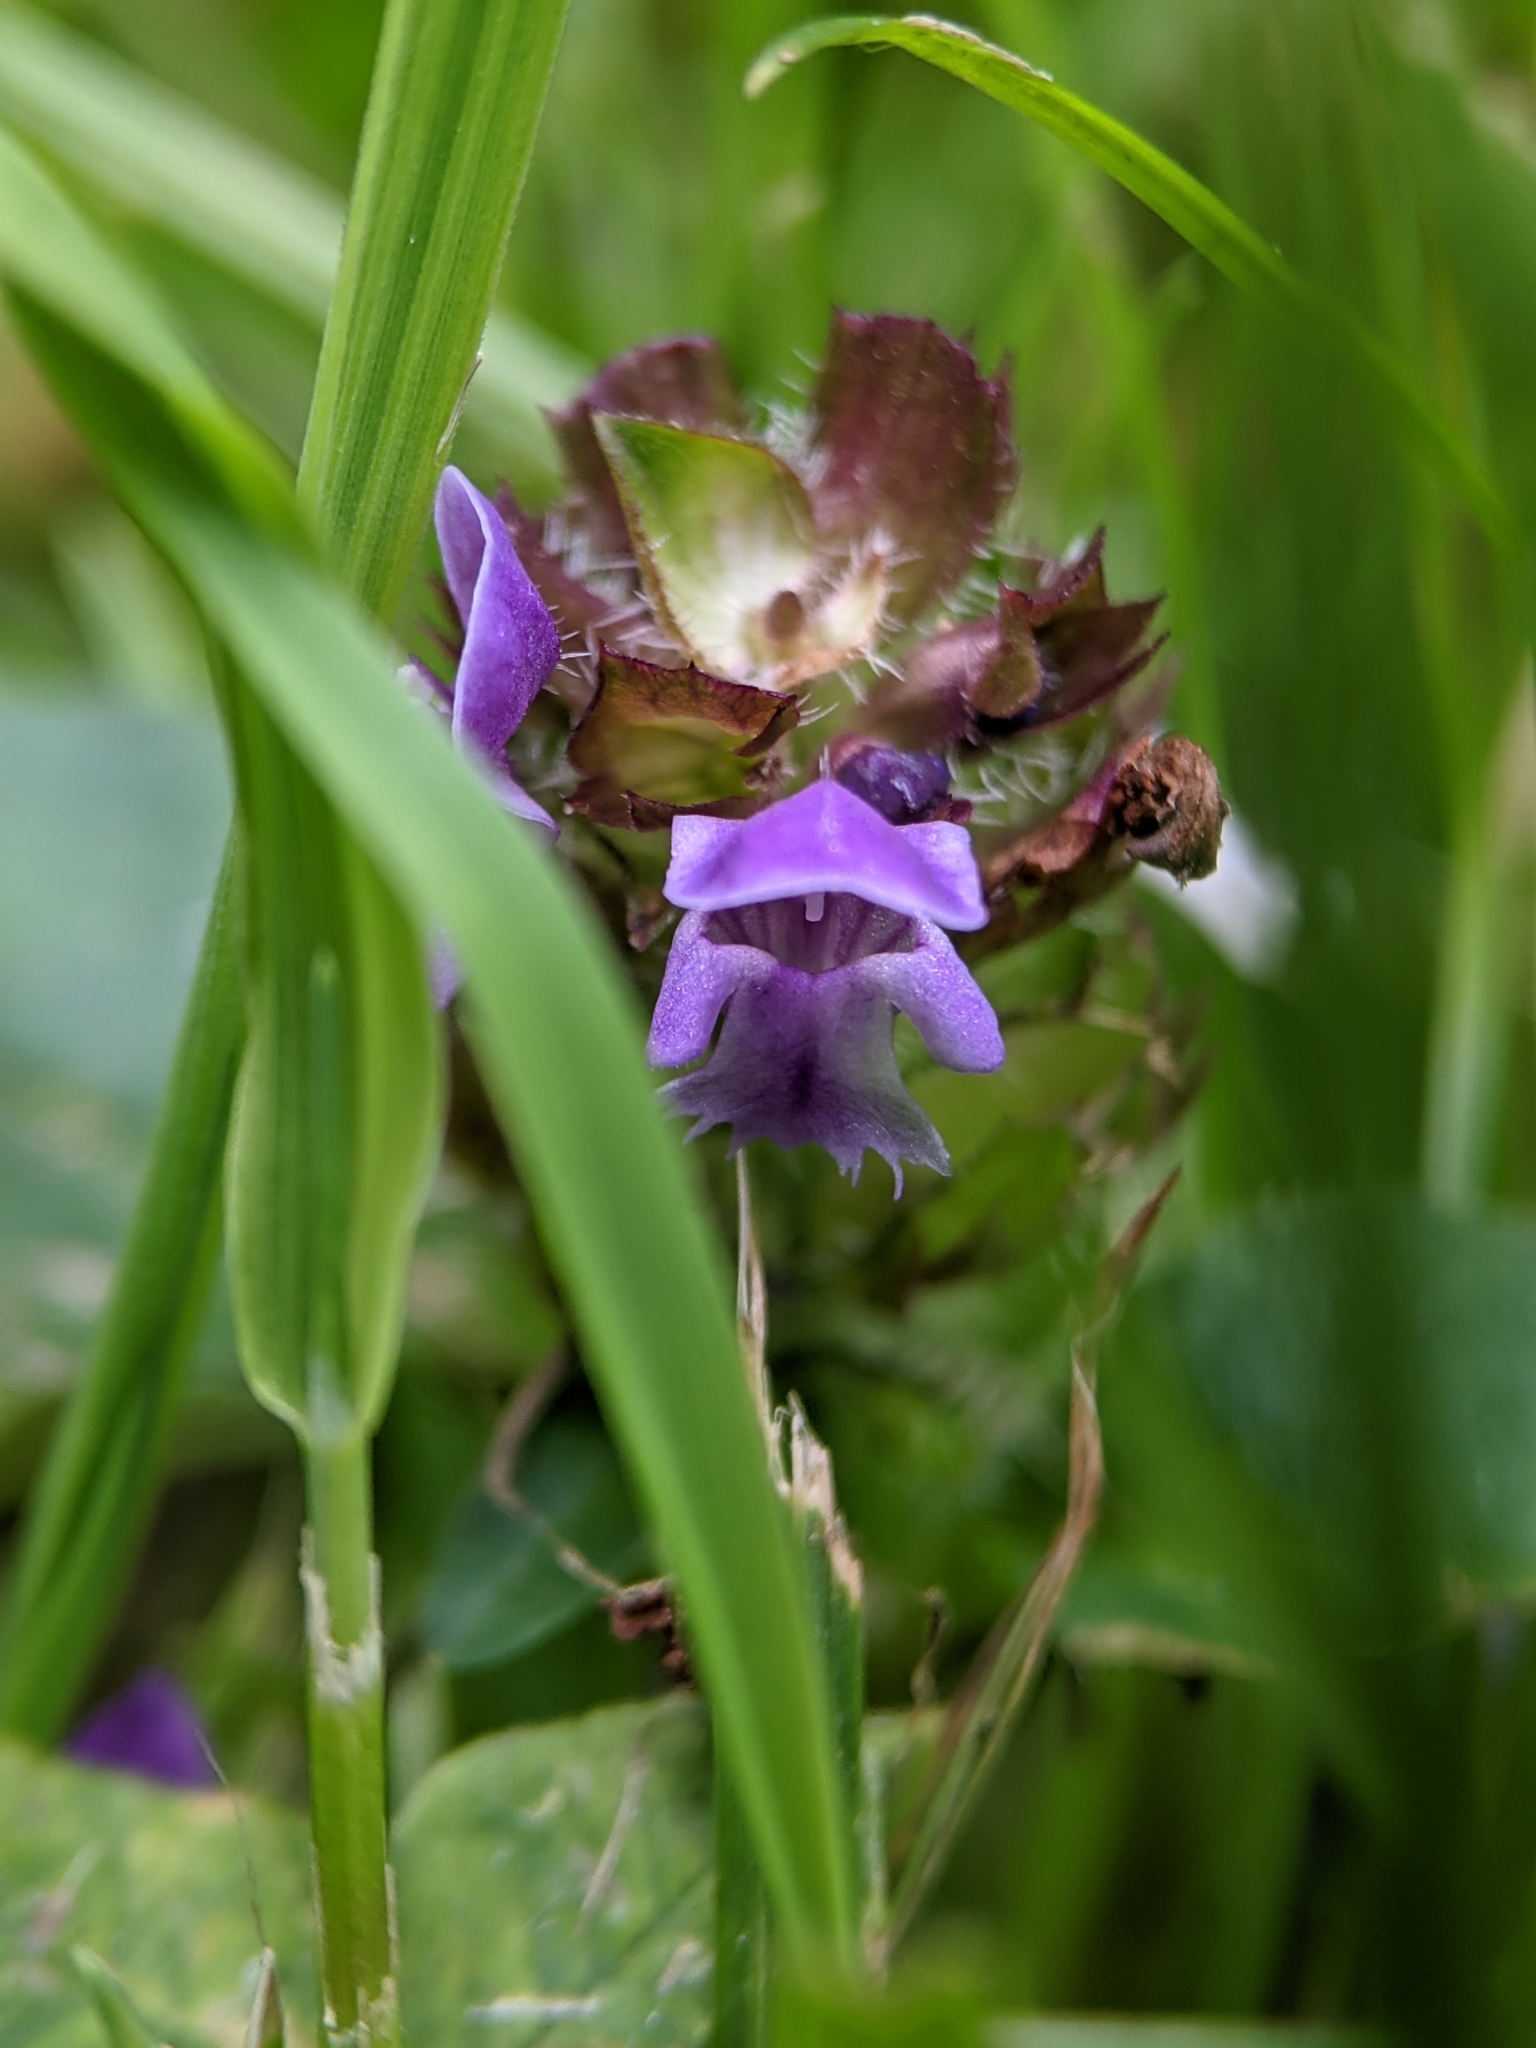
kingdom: Plantae
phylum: Tracheophyta
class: Magnoliopsida
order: Lamiales
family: Lamiaceae
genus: Prunella
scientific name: Prunella vulgaris
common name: Heal-all
